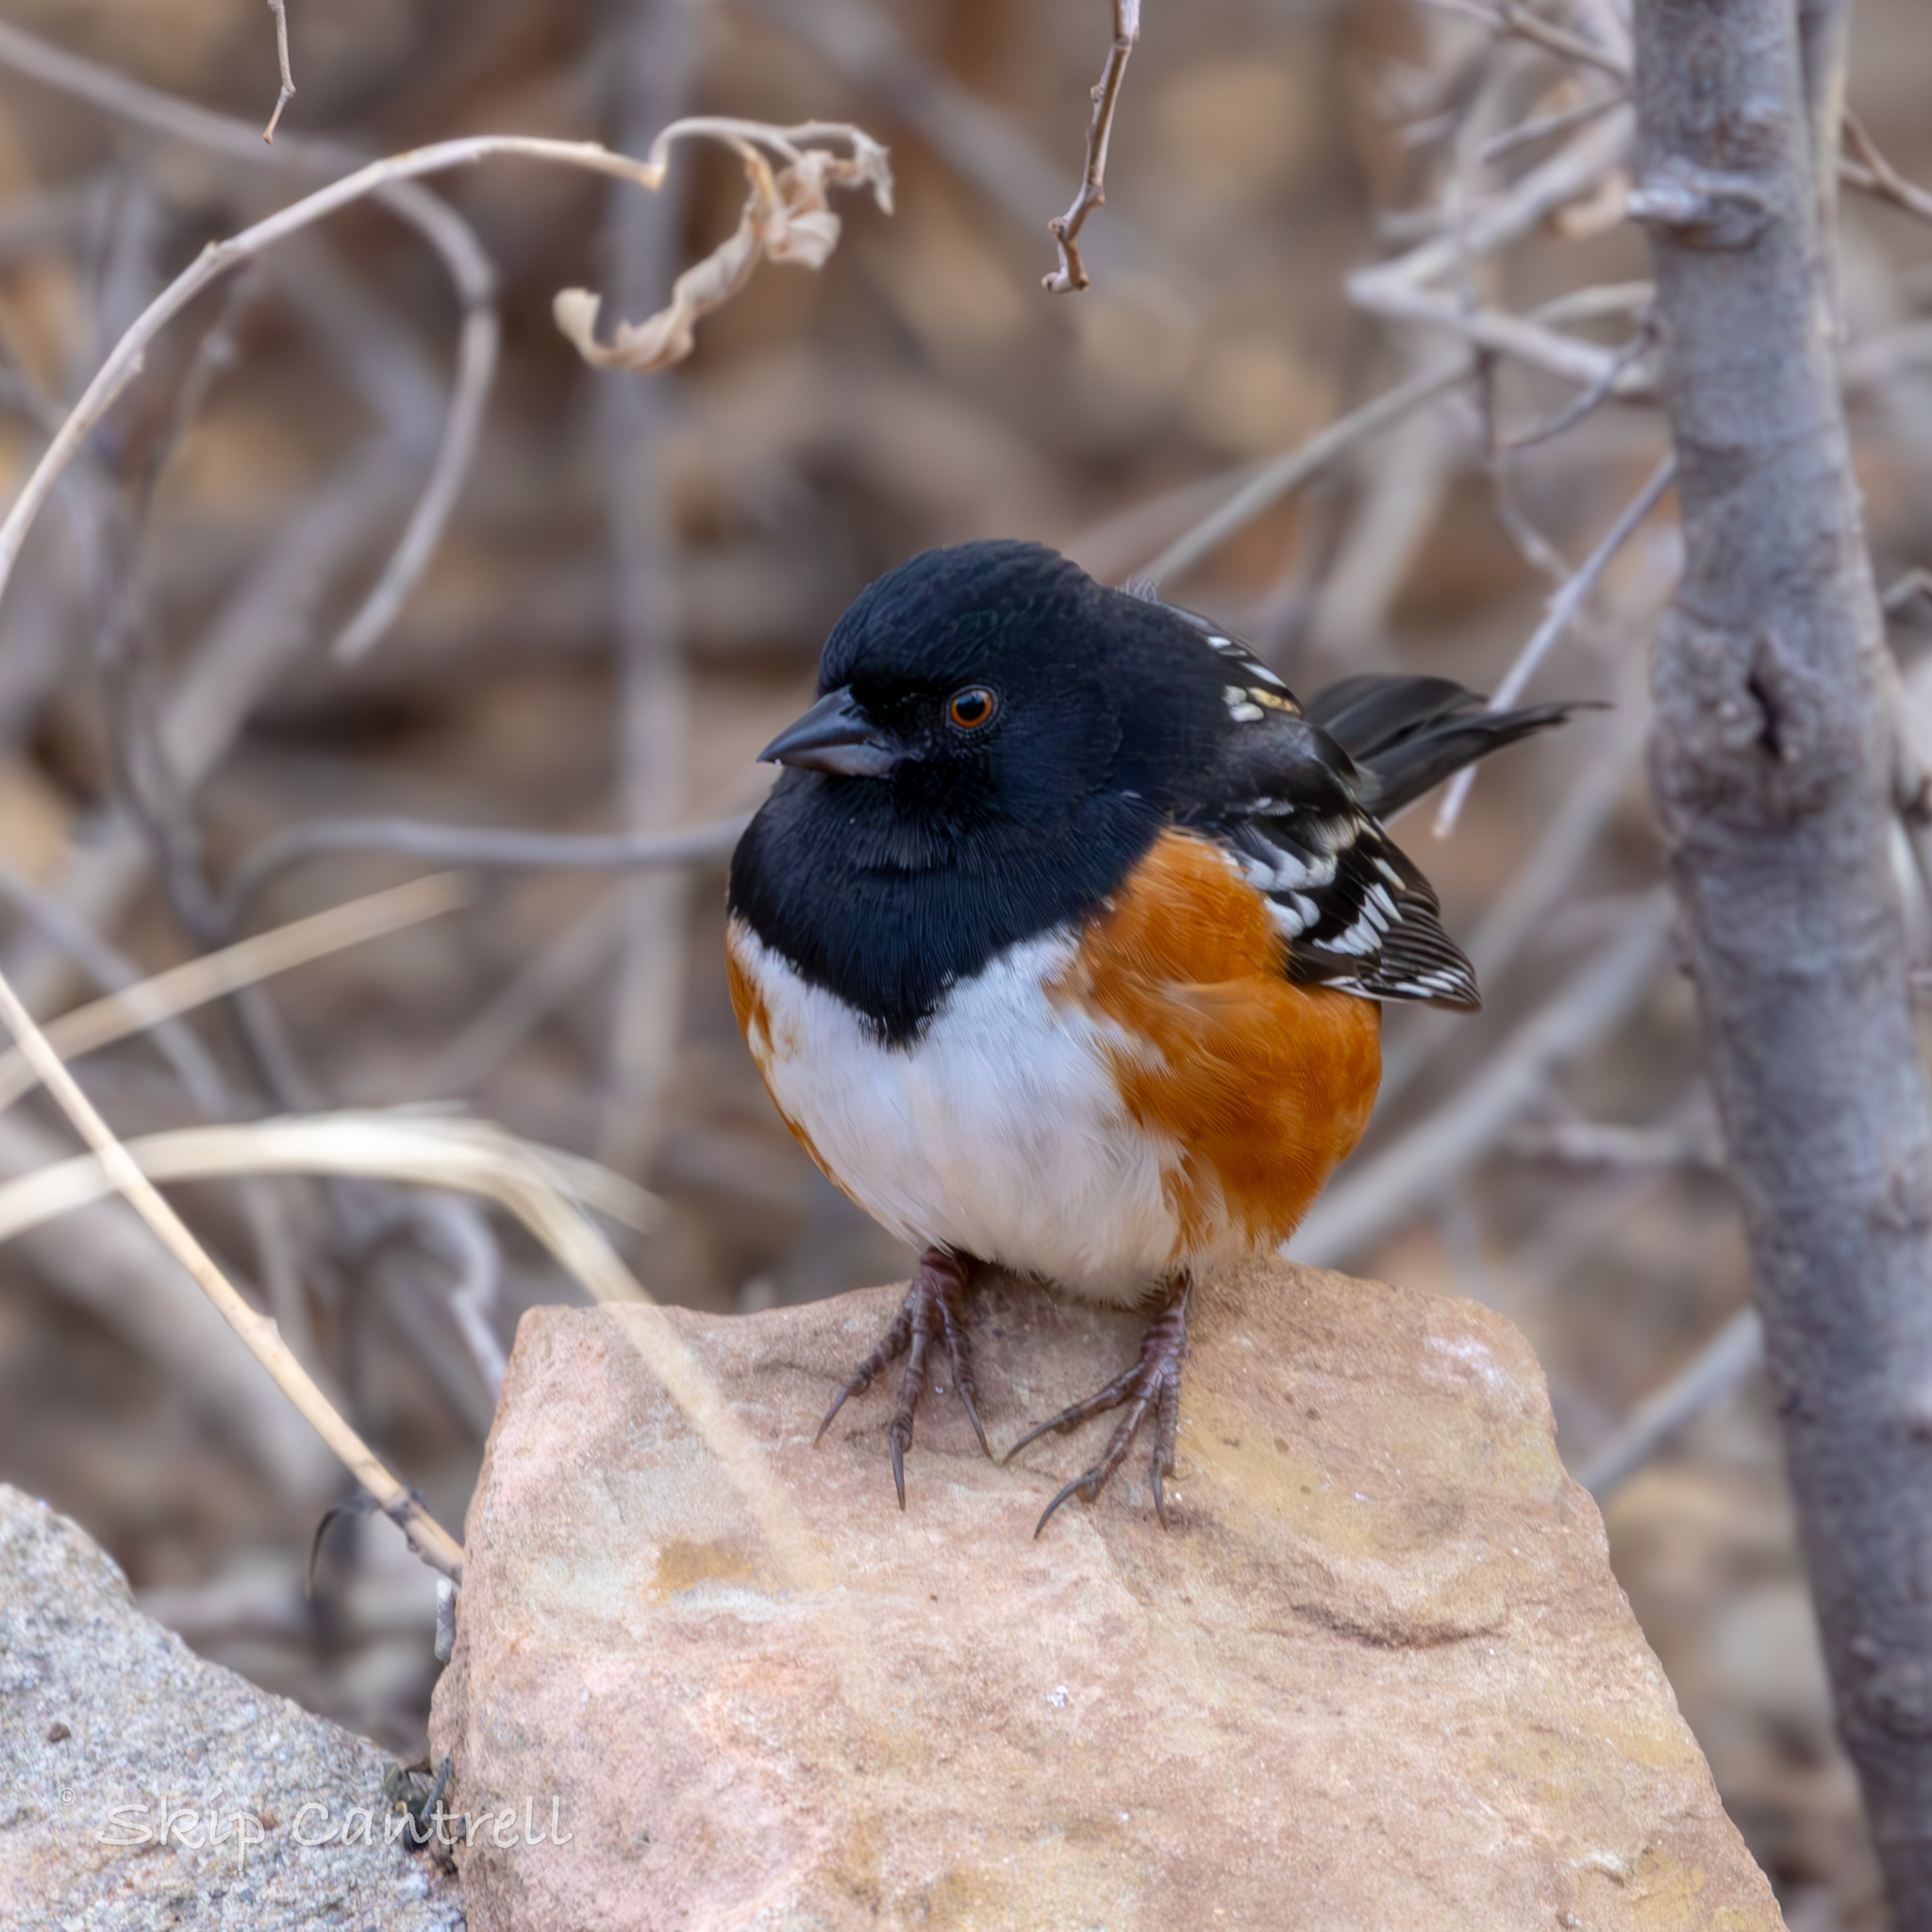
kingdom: Animalia
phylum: Chordata
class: Aves
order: Passeriformes
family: Passerellidae
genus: Pipilo
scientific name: Pipilo maculatus
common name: Spotted towhee
